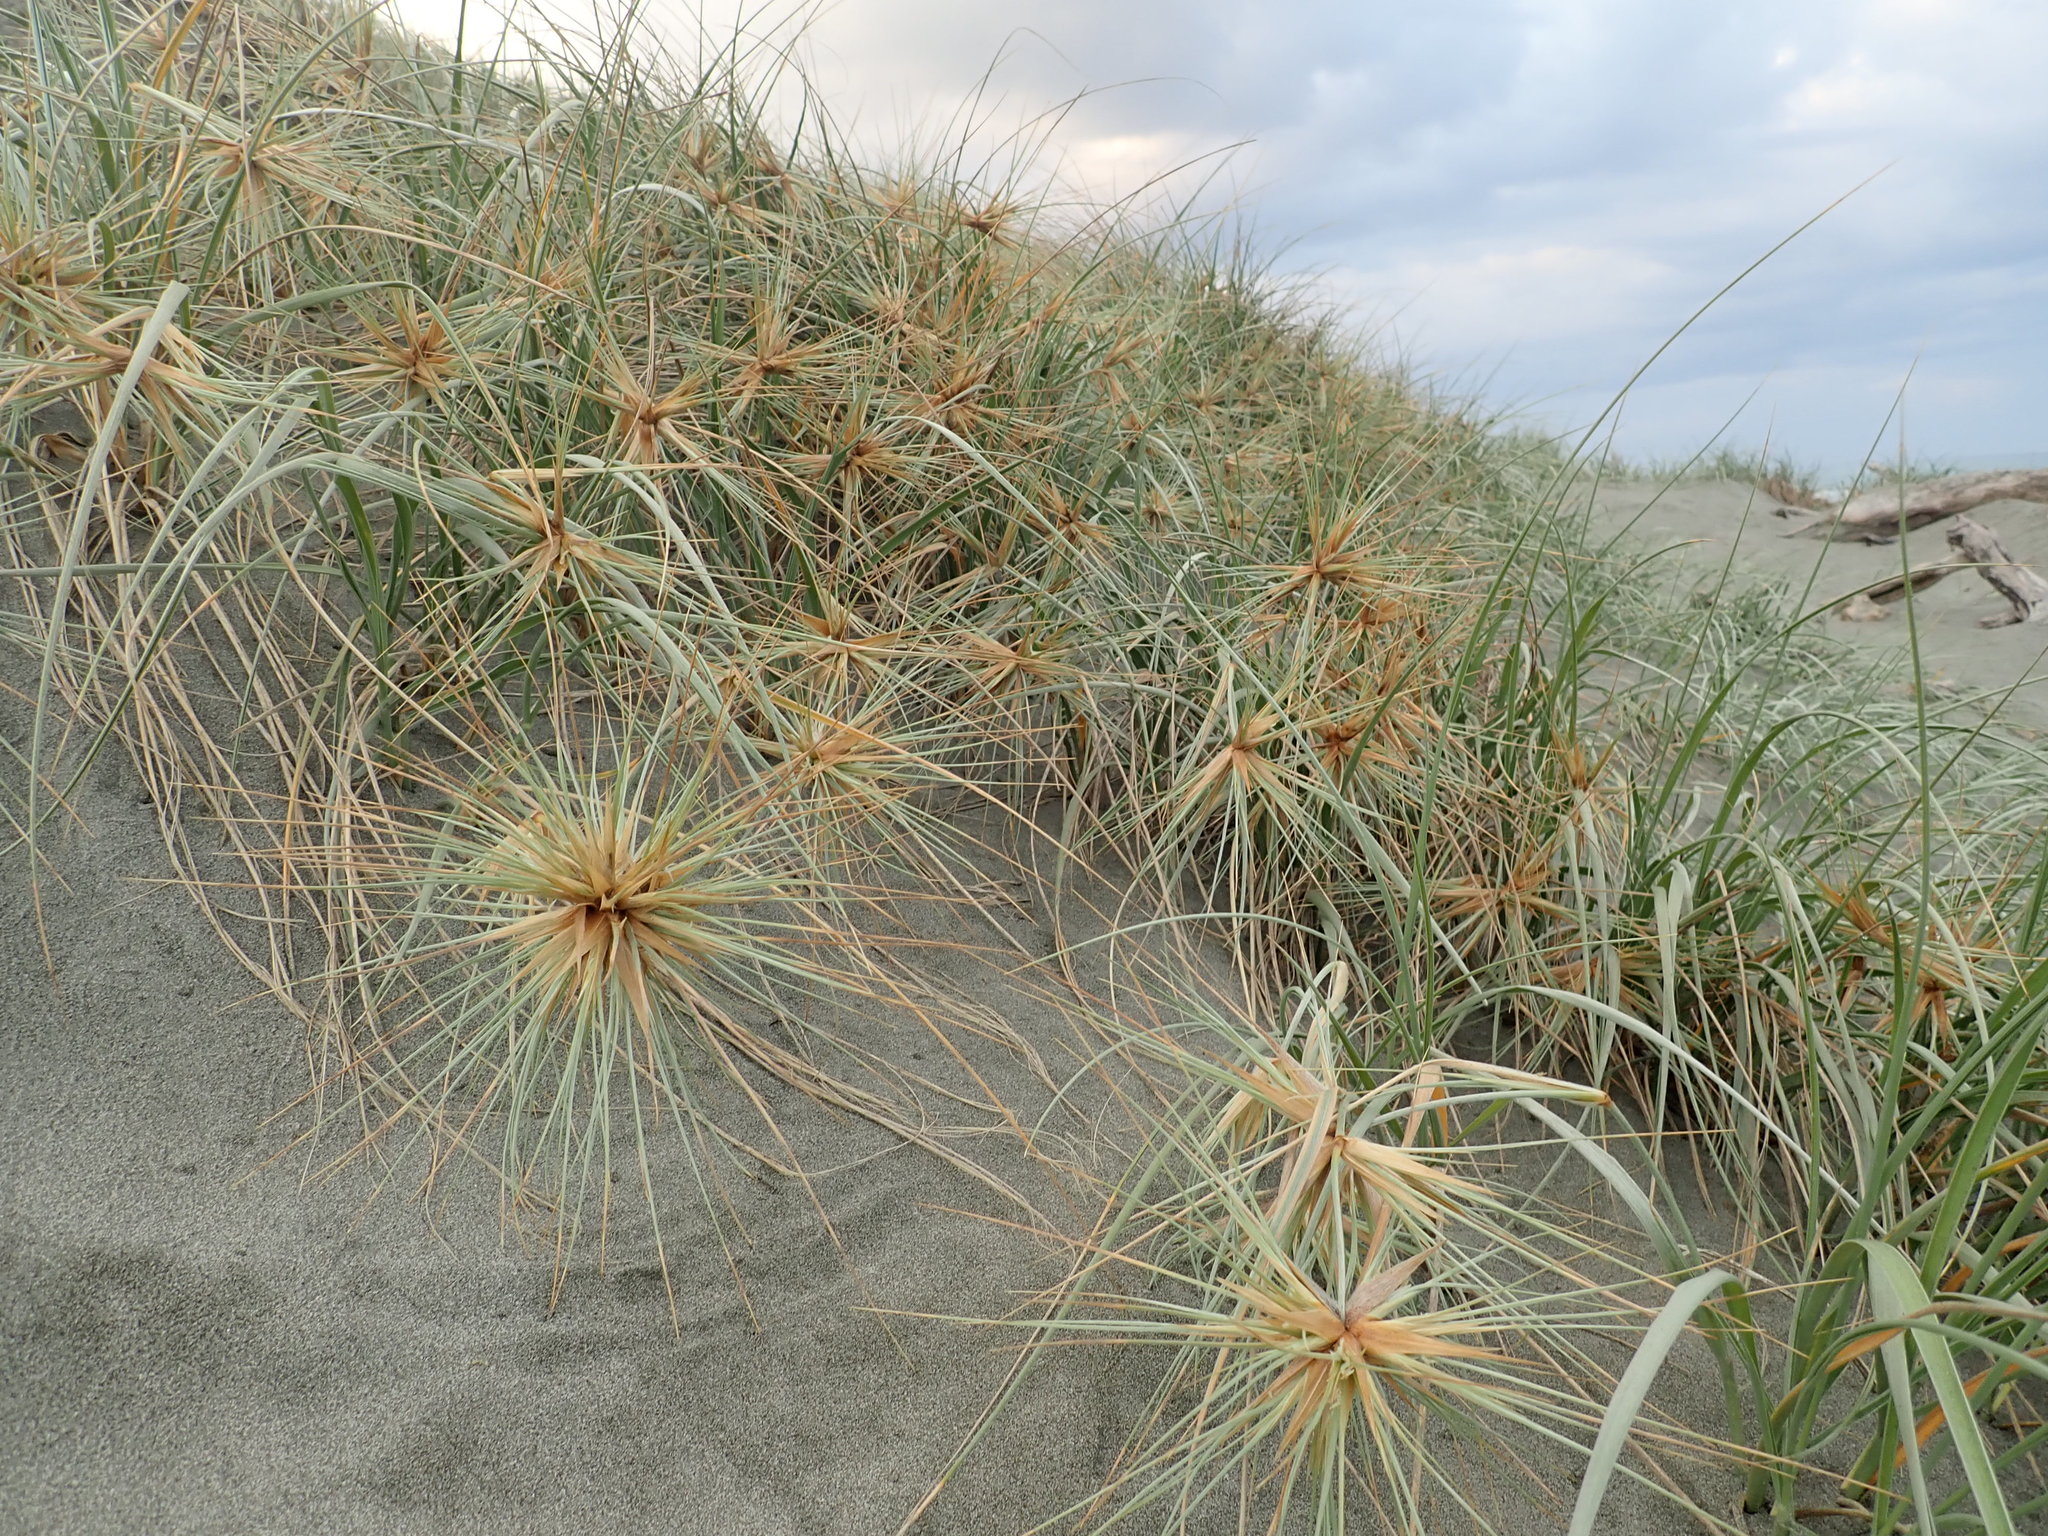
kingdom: Plantae
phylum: Tracheophyta
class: Liliopsida
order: Poales
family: Poaceae
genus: Spinifex
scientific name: Spinifex sericeus
